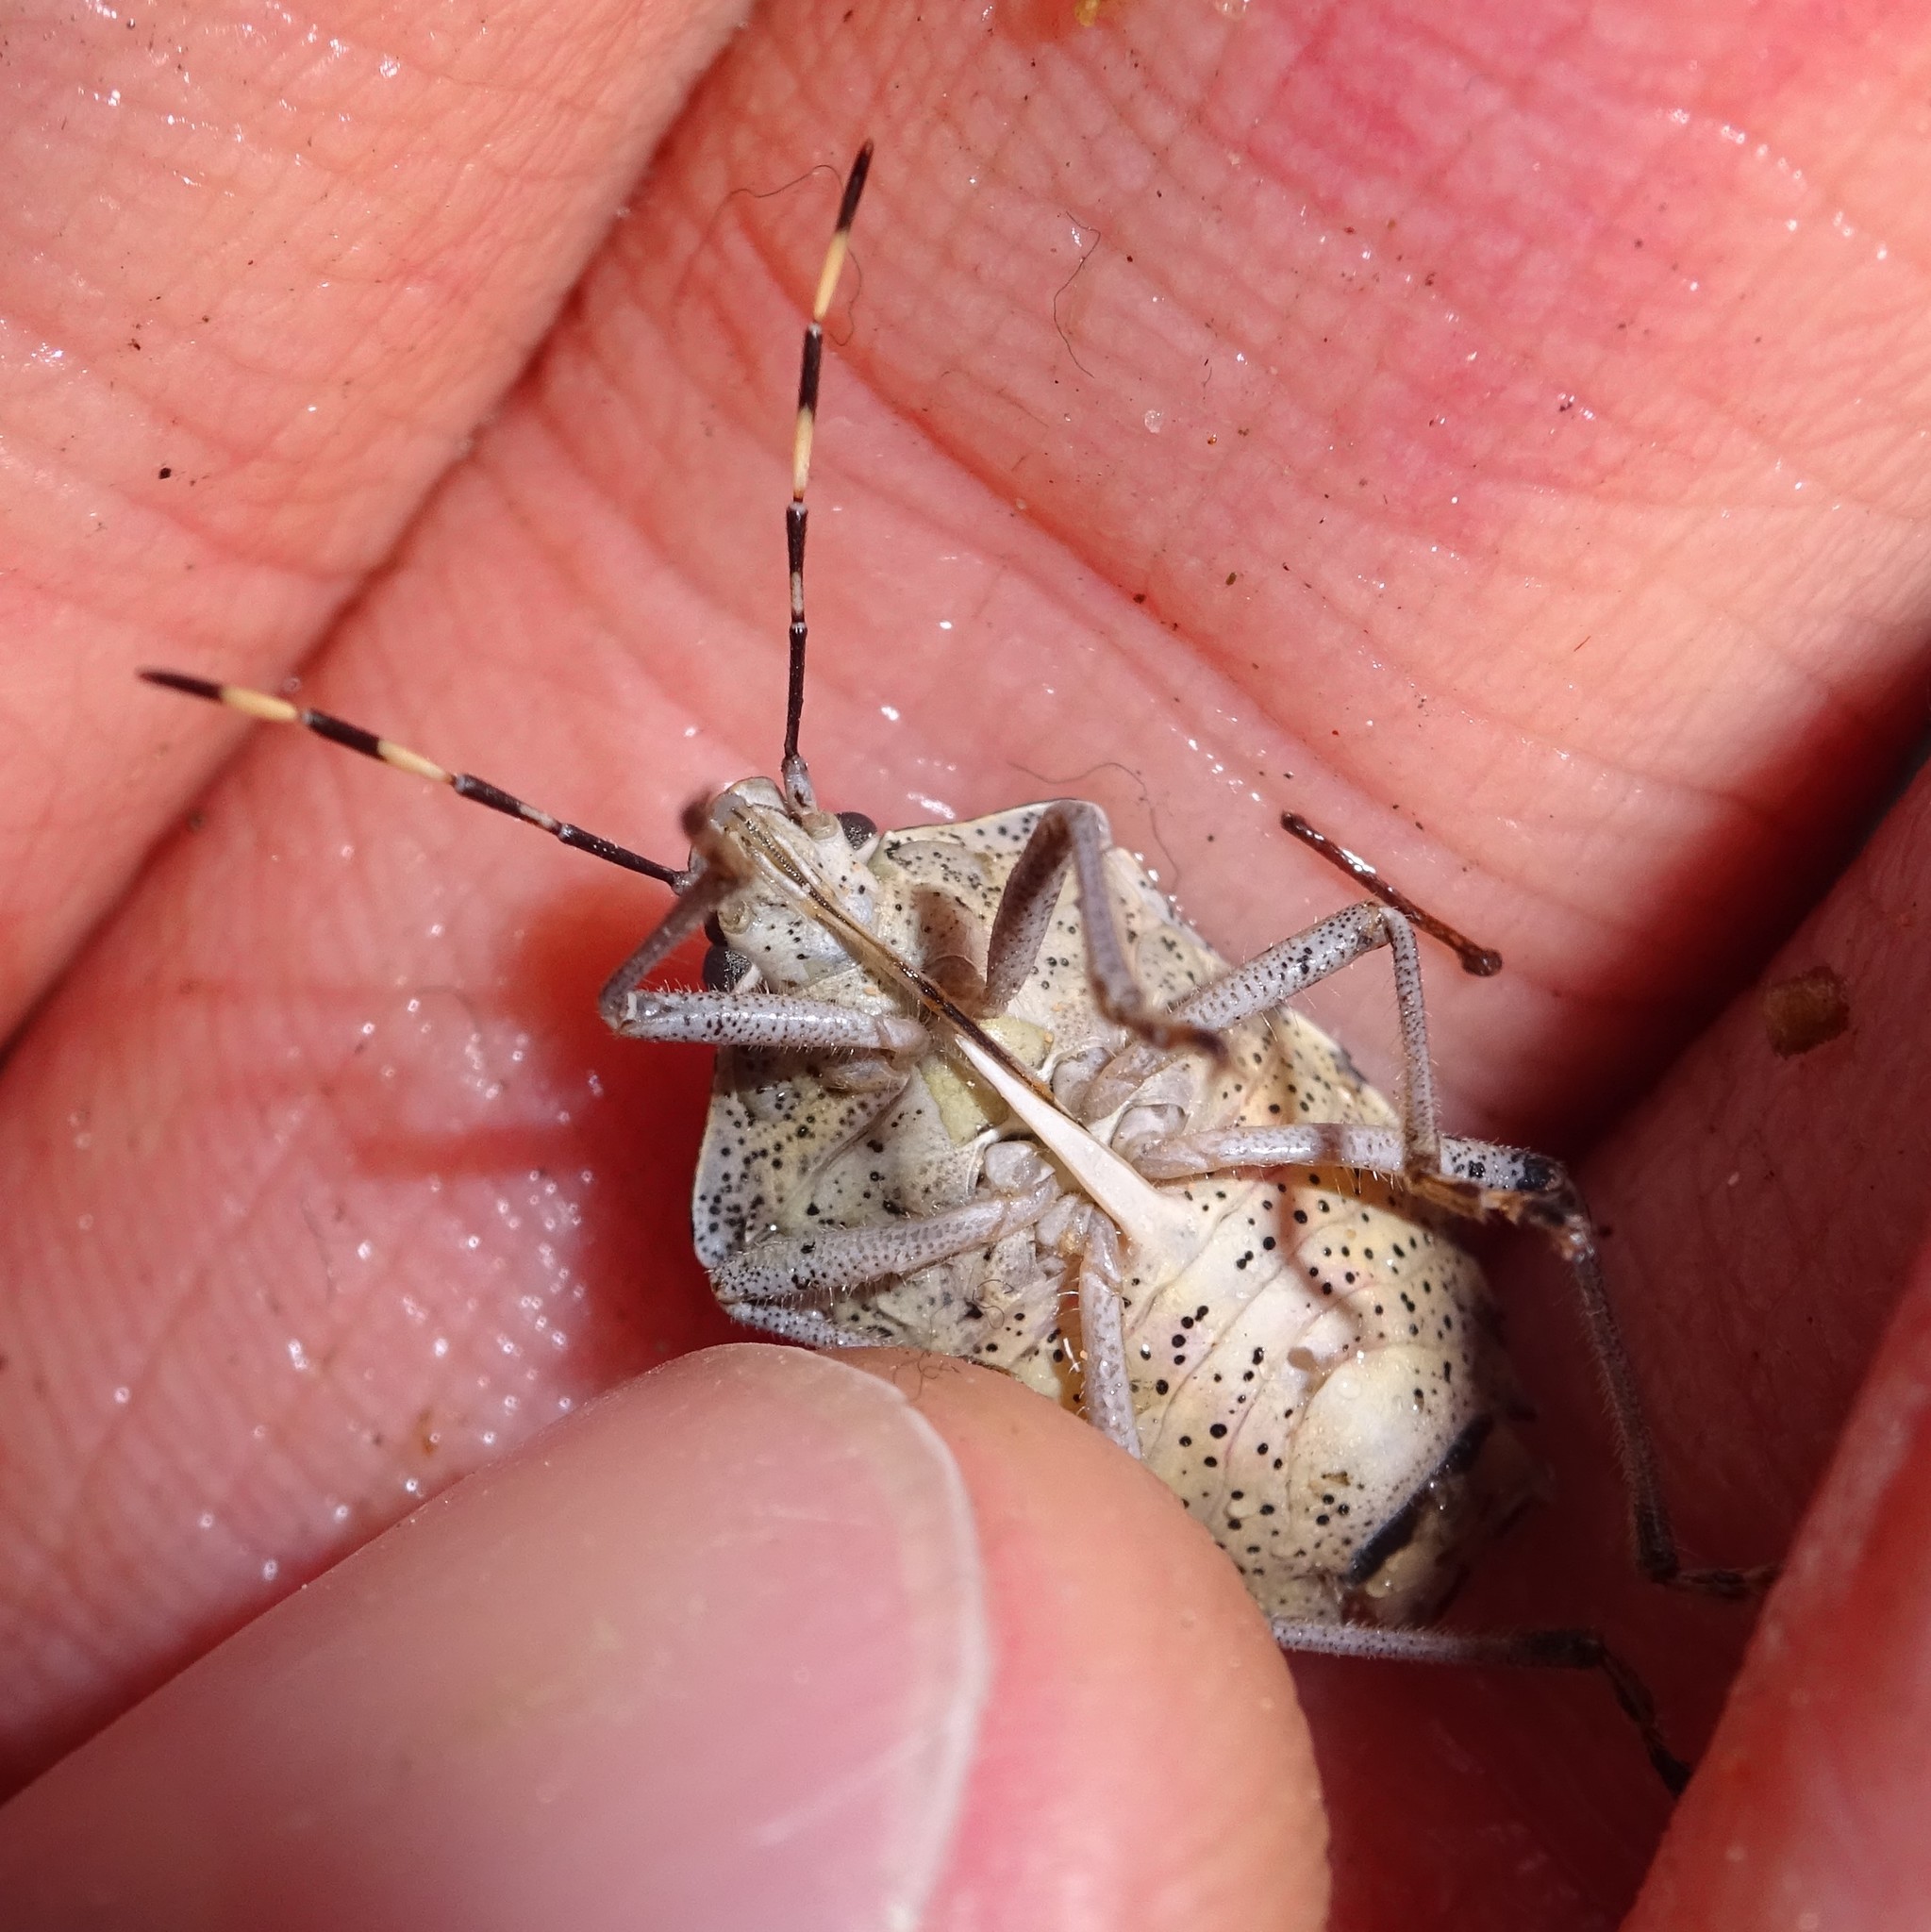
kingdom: Animalia
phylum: Arthropoda
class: Insecta
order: Hemiptera
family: Pentatomidae
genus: Rhaphigaster
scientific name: Rhaphigaster nebulosa
